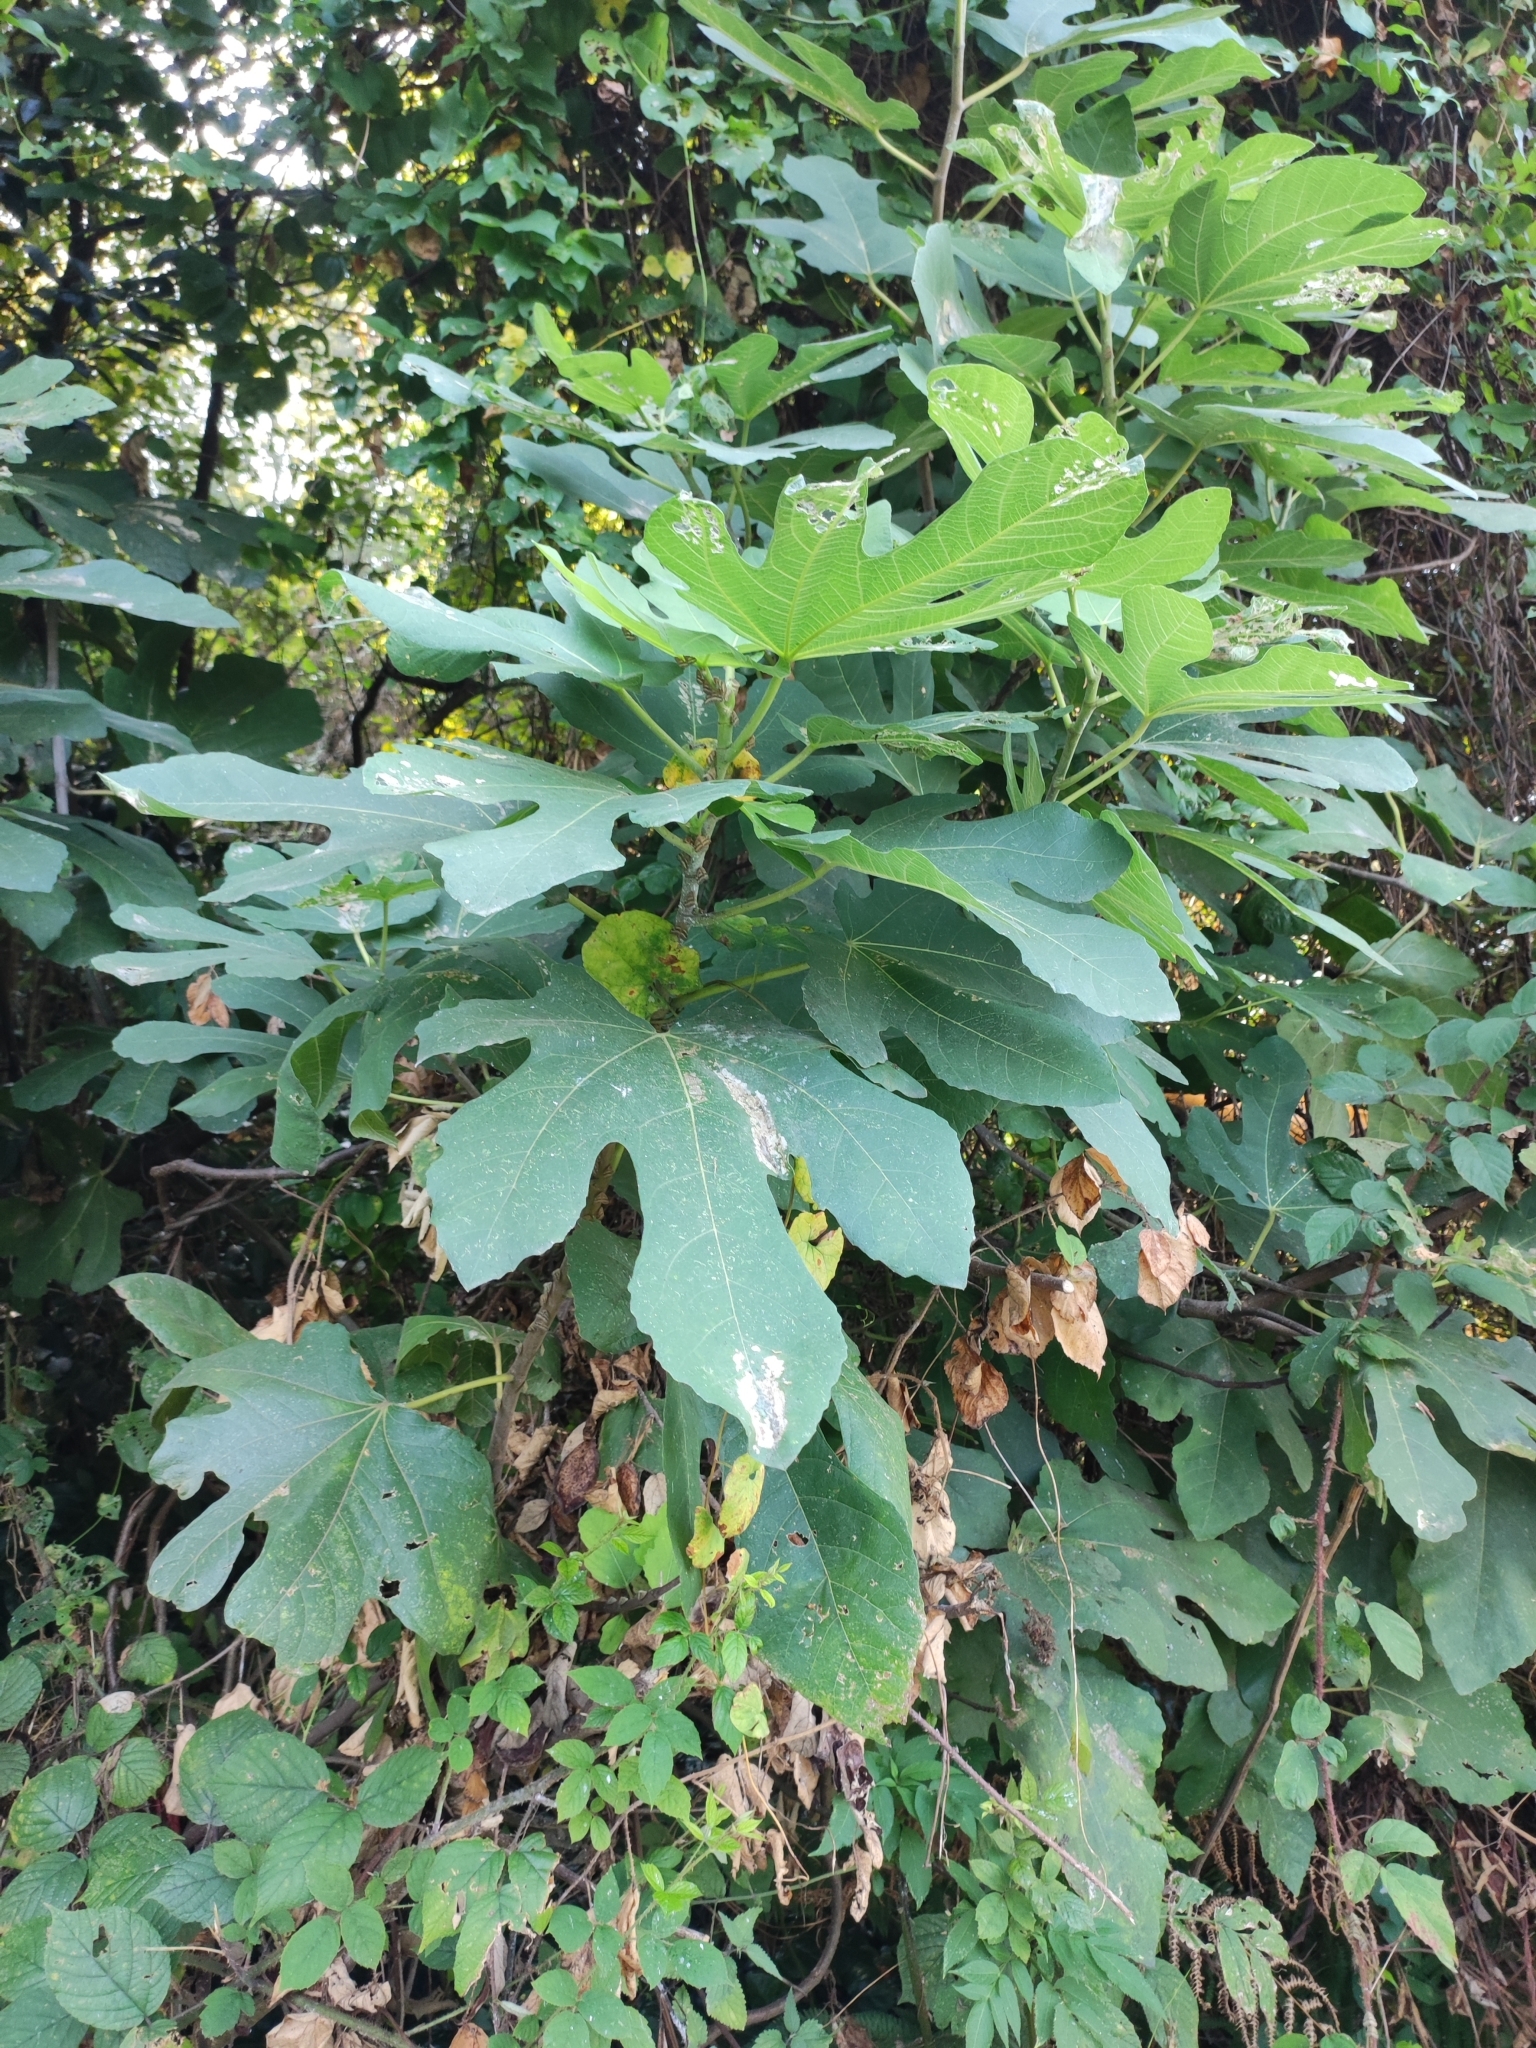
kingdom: Plantae
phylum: Tracheophyta
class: Magnoliopsida
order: Rosales
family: Moraceae
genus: Ficus
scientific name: Ficus carica
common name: Fig
